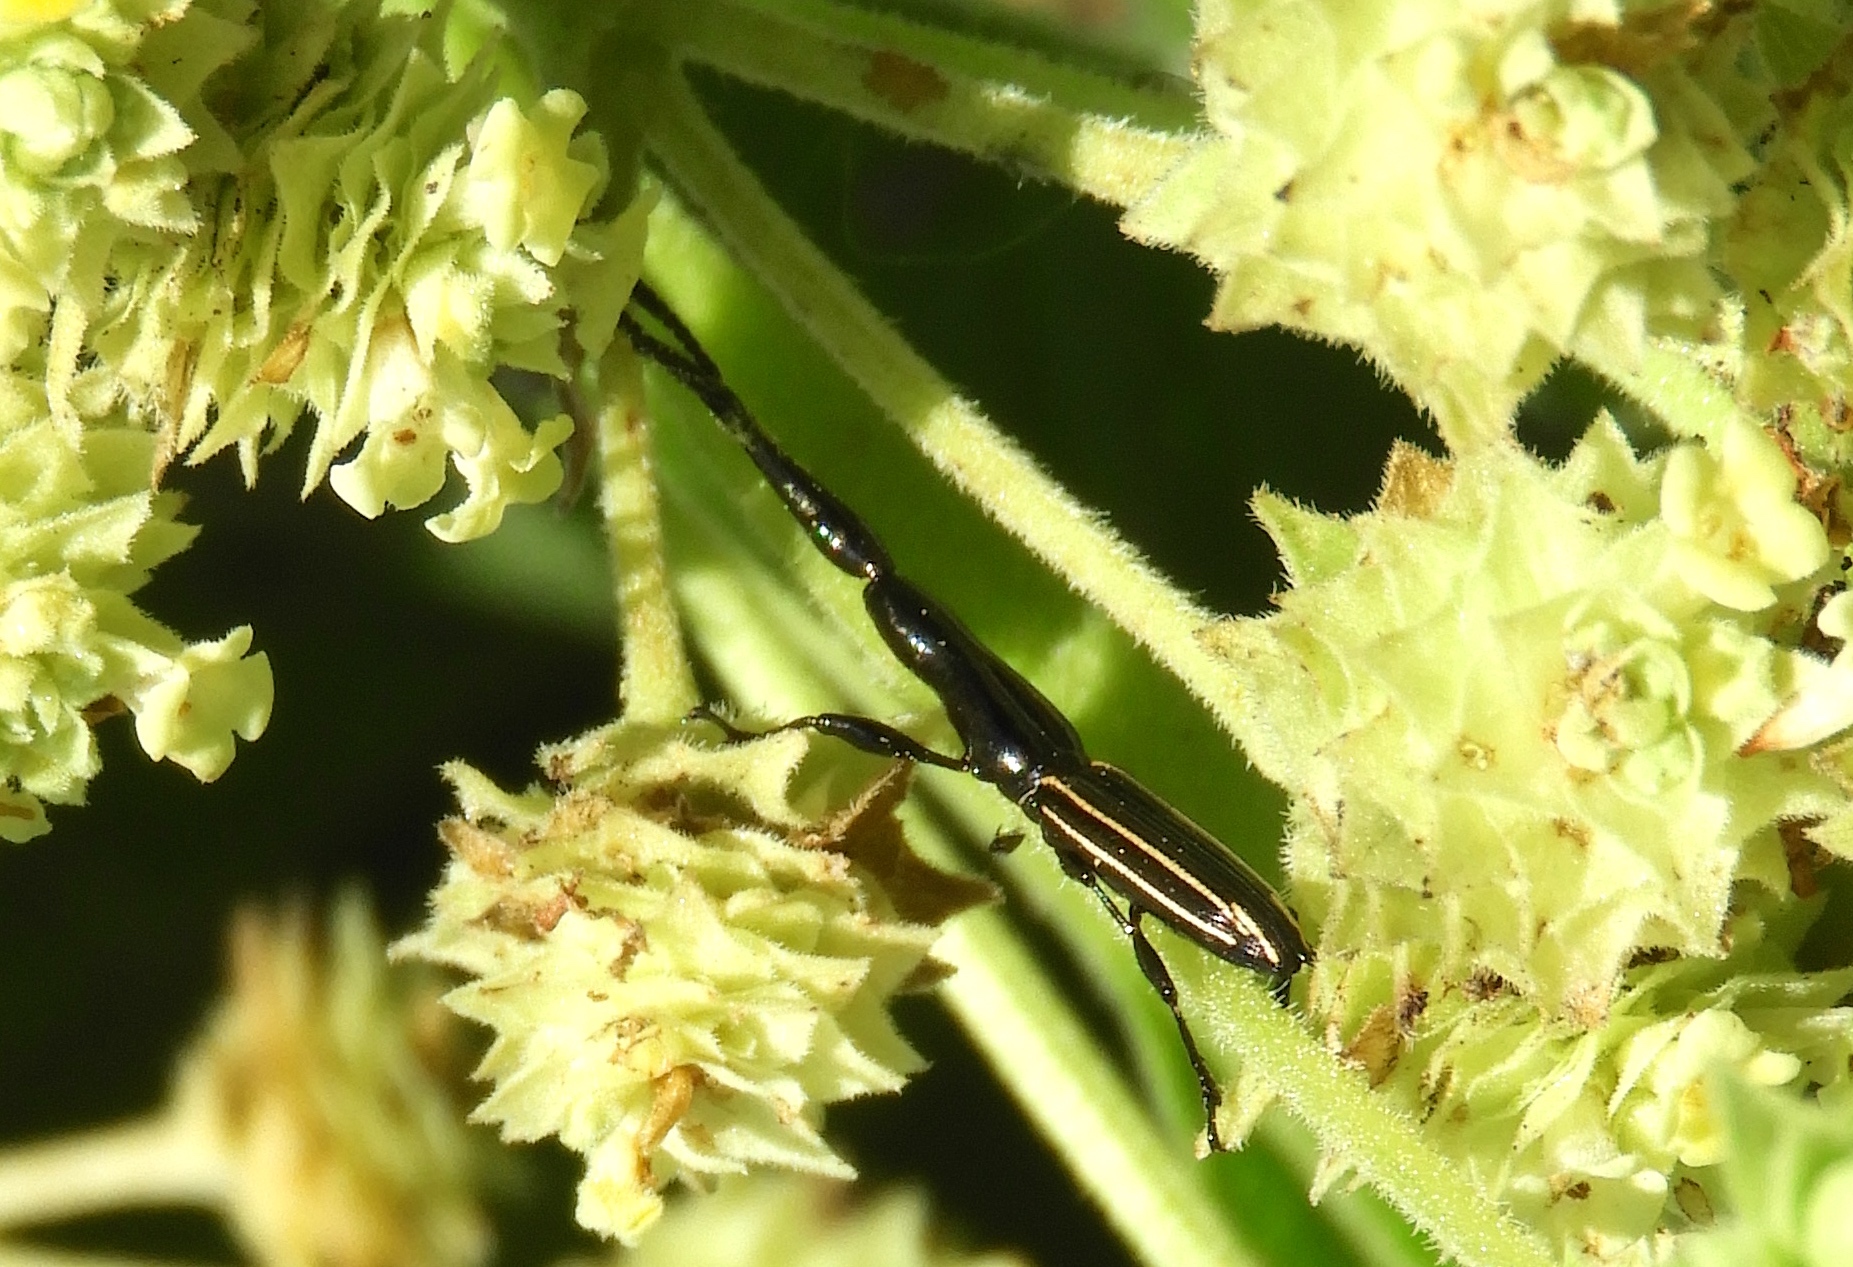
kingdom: Animalia
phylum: Arthropoda
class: Insecta
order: Coleoptera
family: Brentidae
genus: Brentus
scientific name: Brentus anchorago
